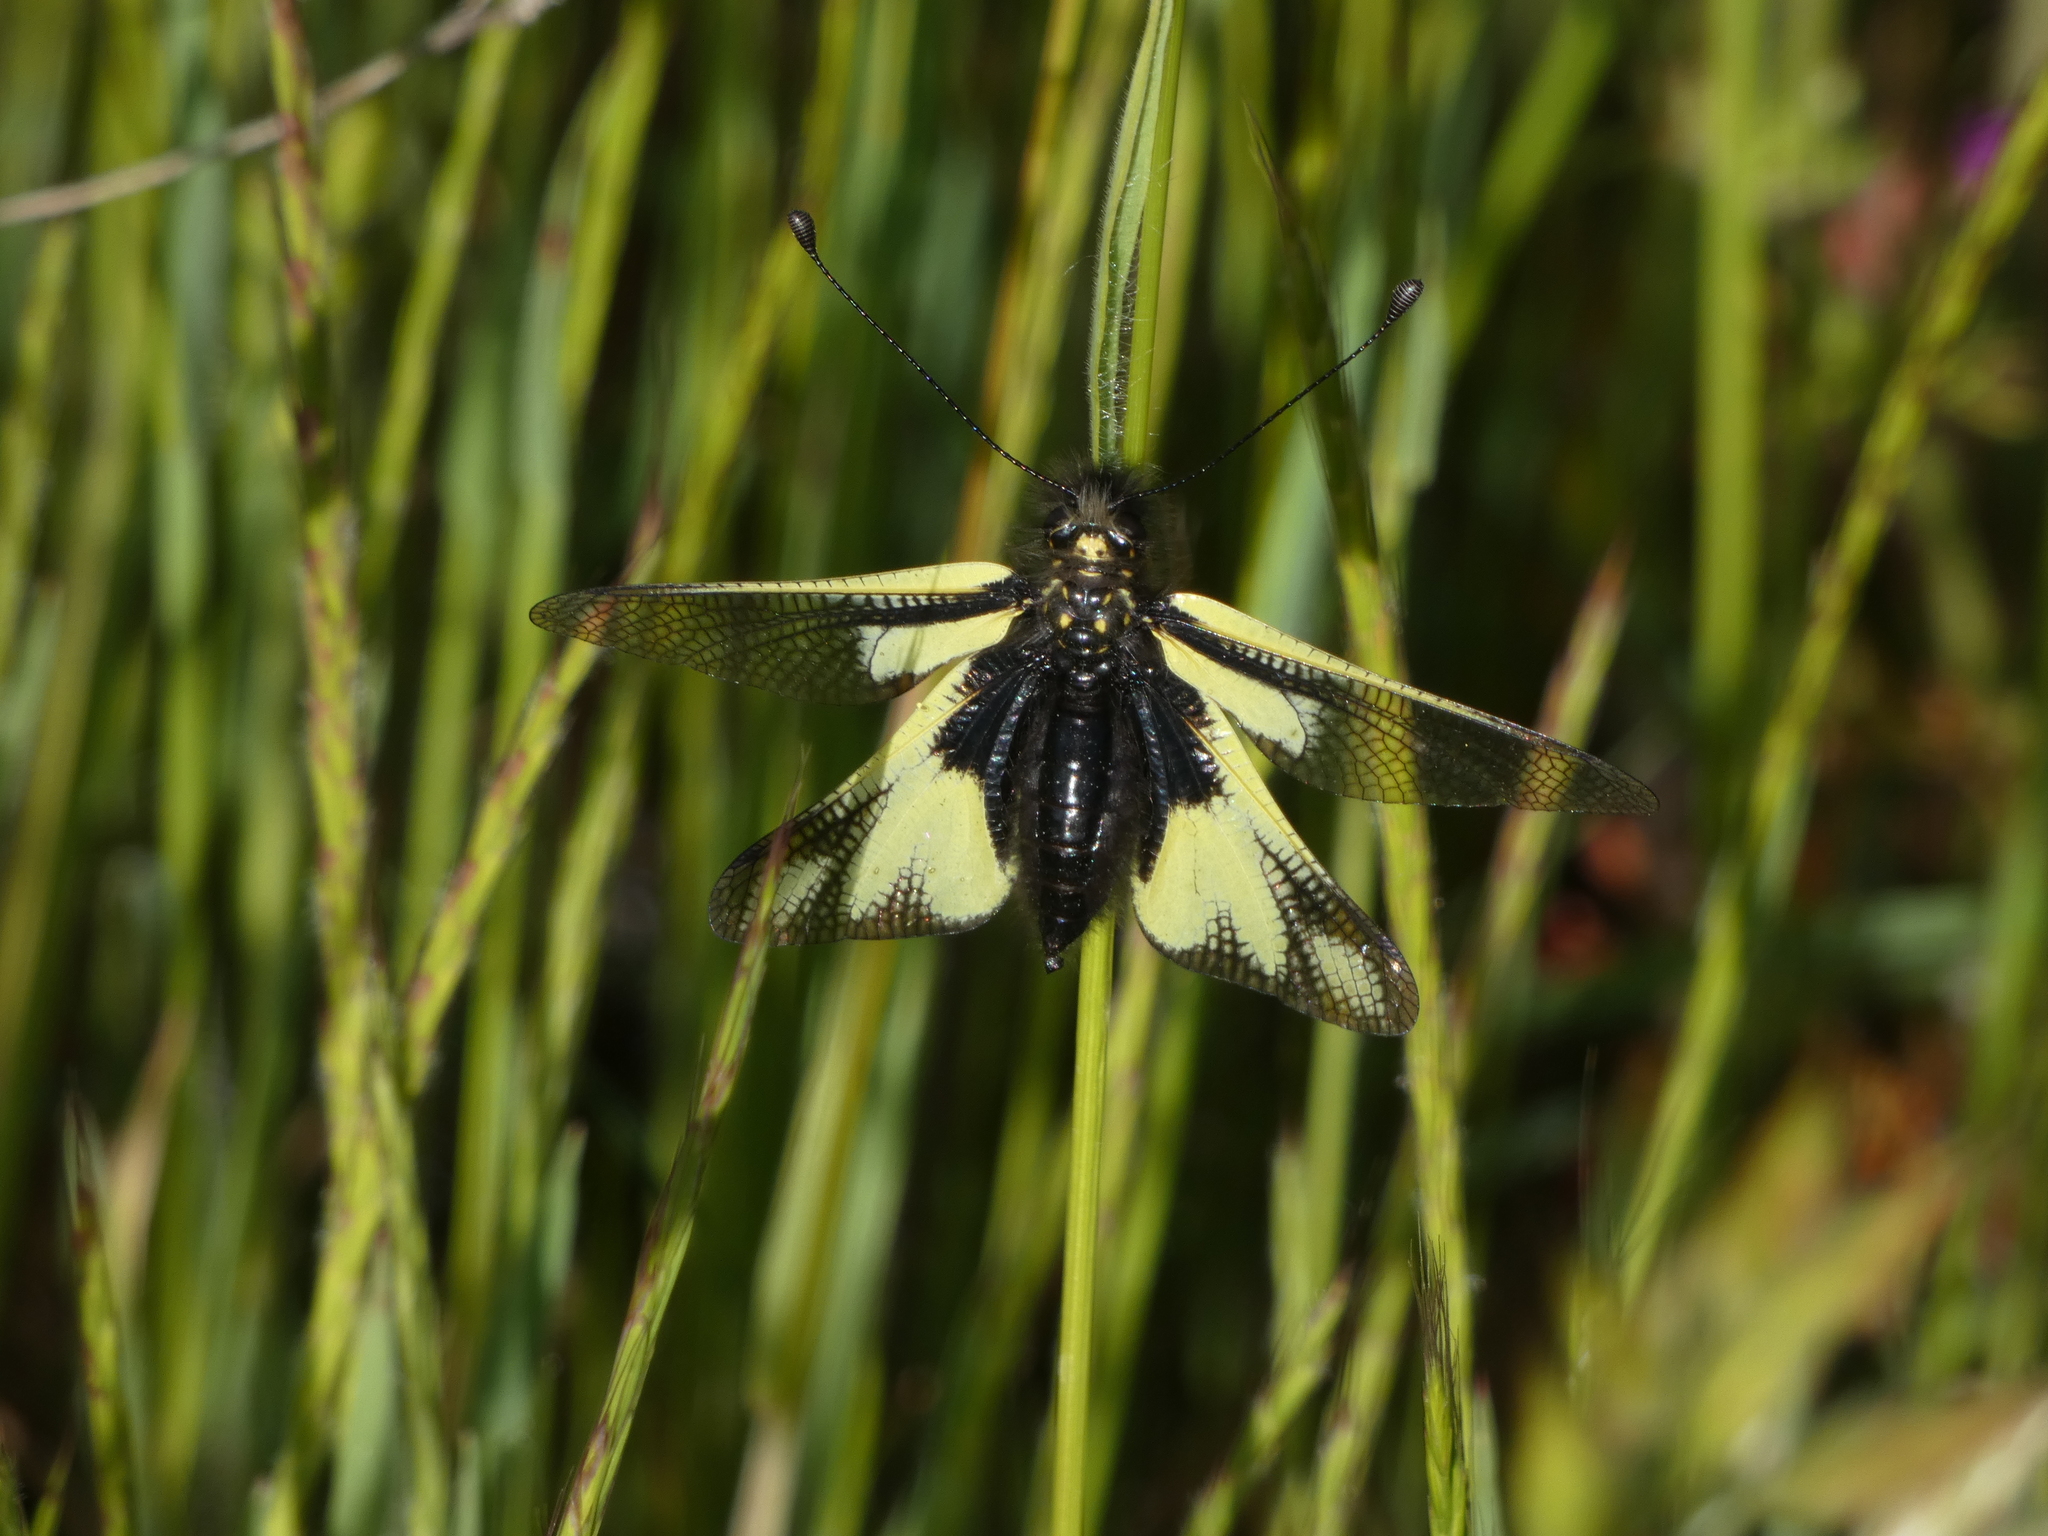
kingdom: Animalia
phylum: Arthropoda
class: Insecta
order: Neuroptera
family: Ascalaphidae
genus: Libelloides
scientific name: Libelloides coccajus
